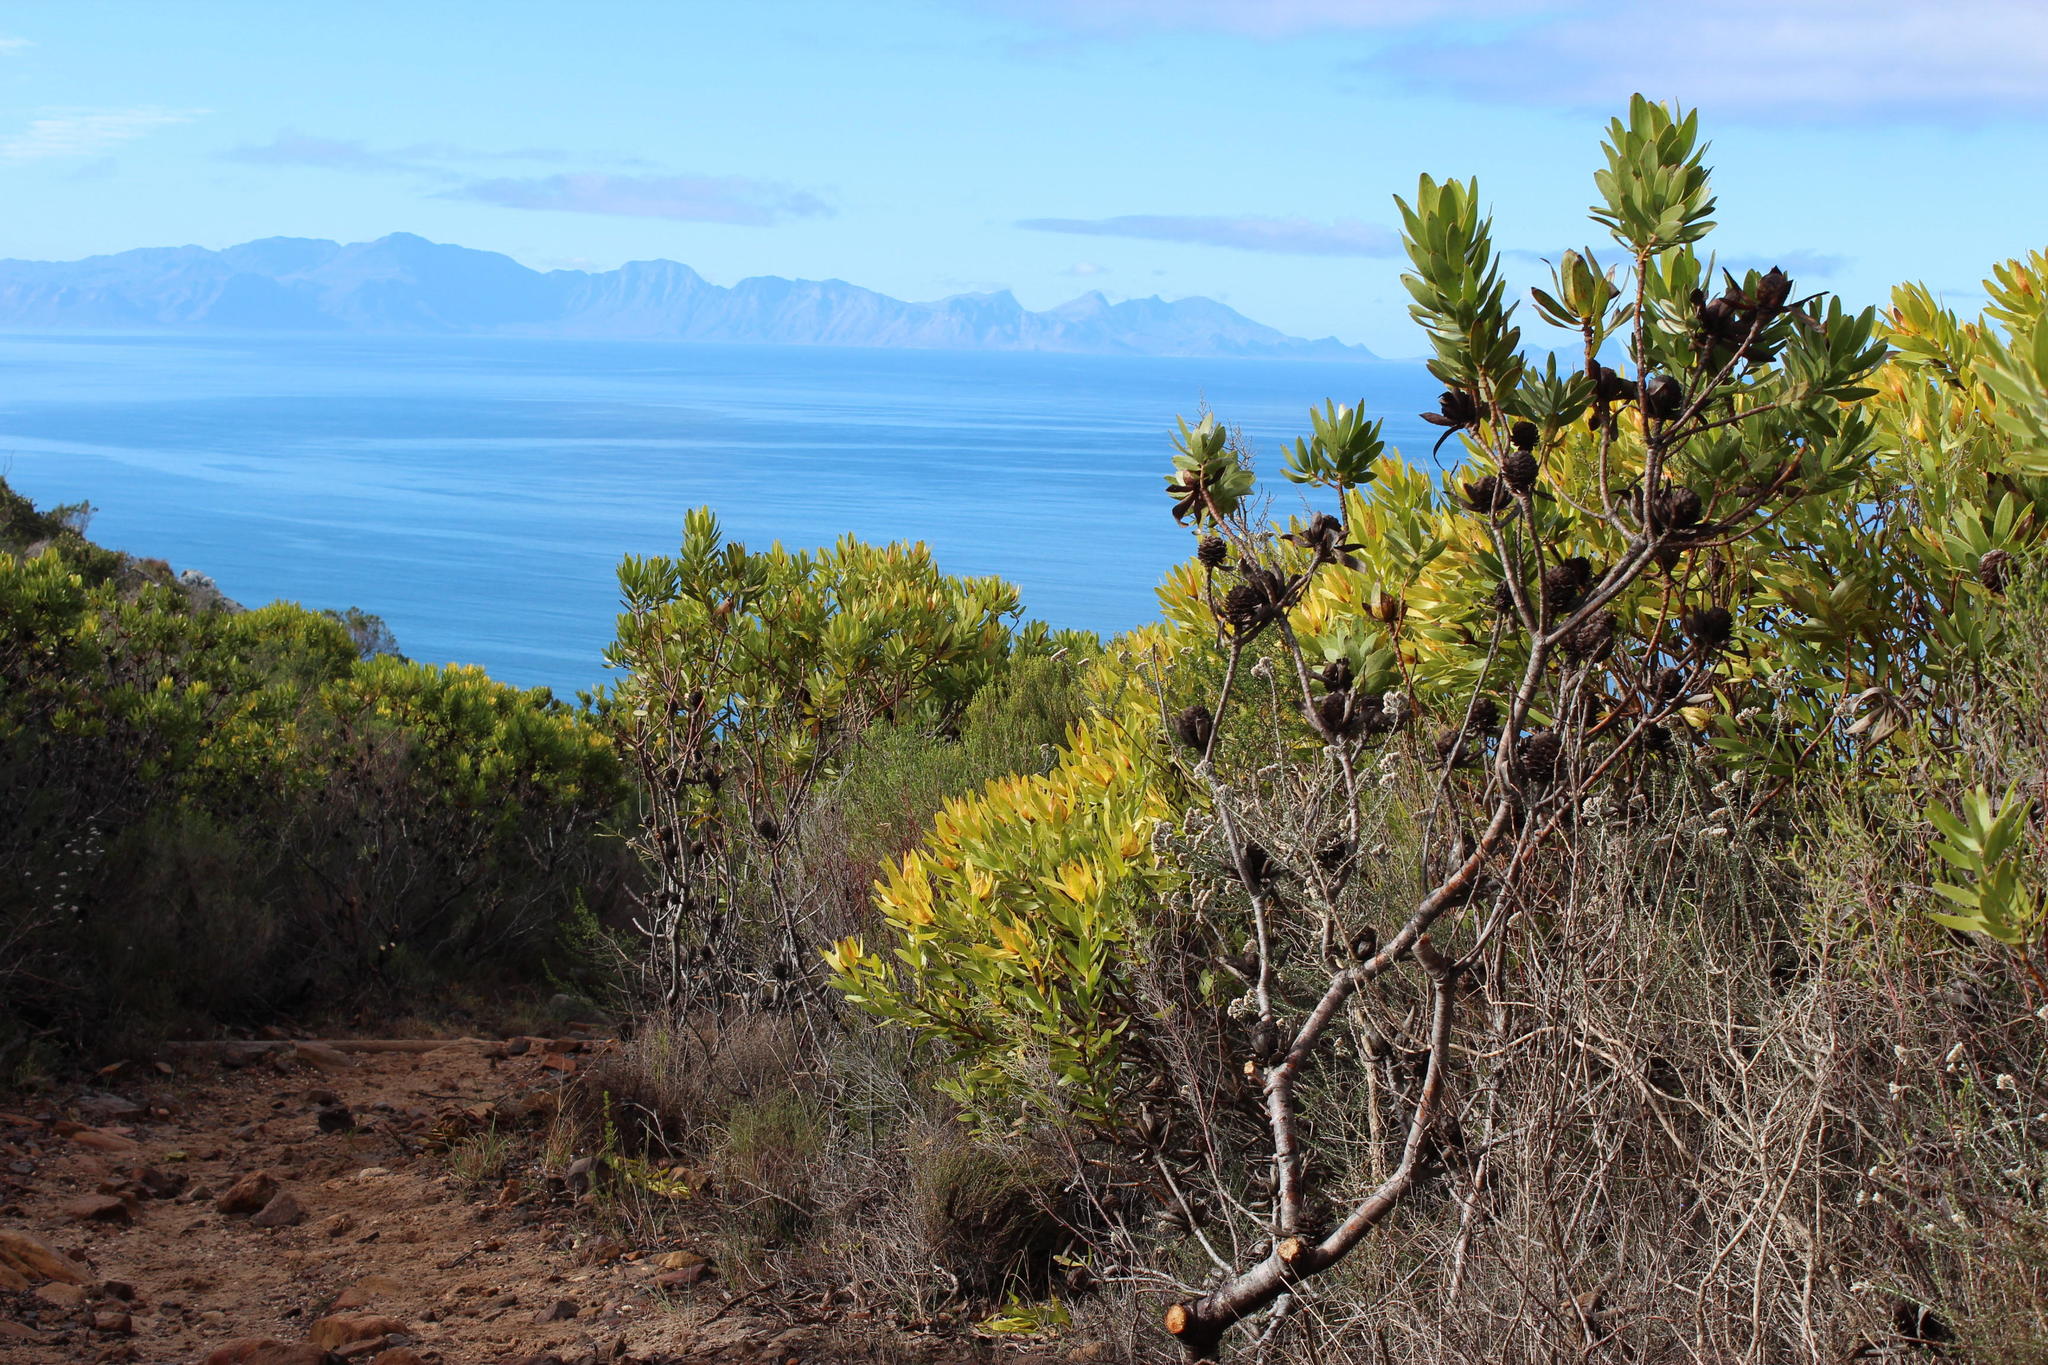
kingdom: Plantae
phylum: Tracheophyta
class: Magnoliopsida
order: Proteales
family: Proteaceae
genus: Leucadendron
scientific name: Leucadendron laureolum
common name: Golden sunshinebush
